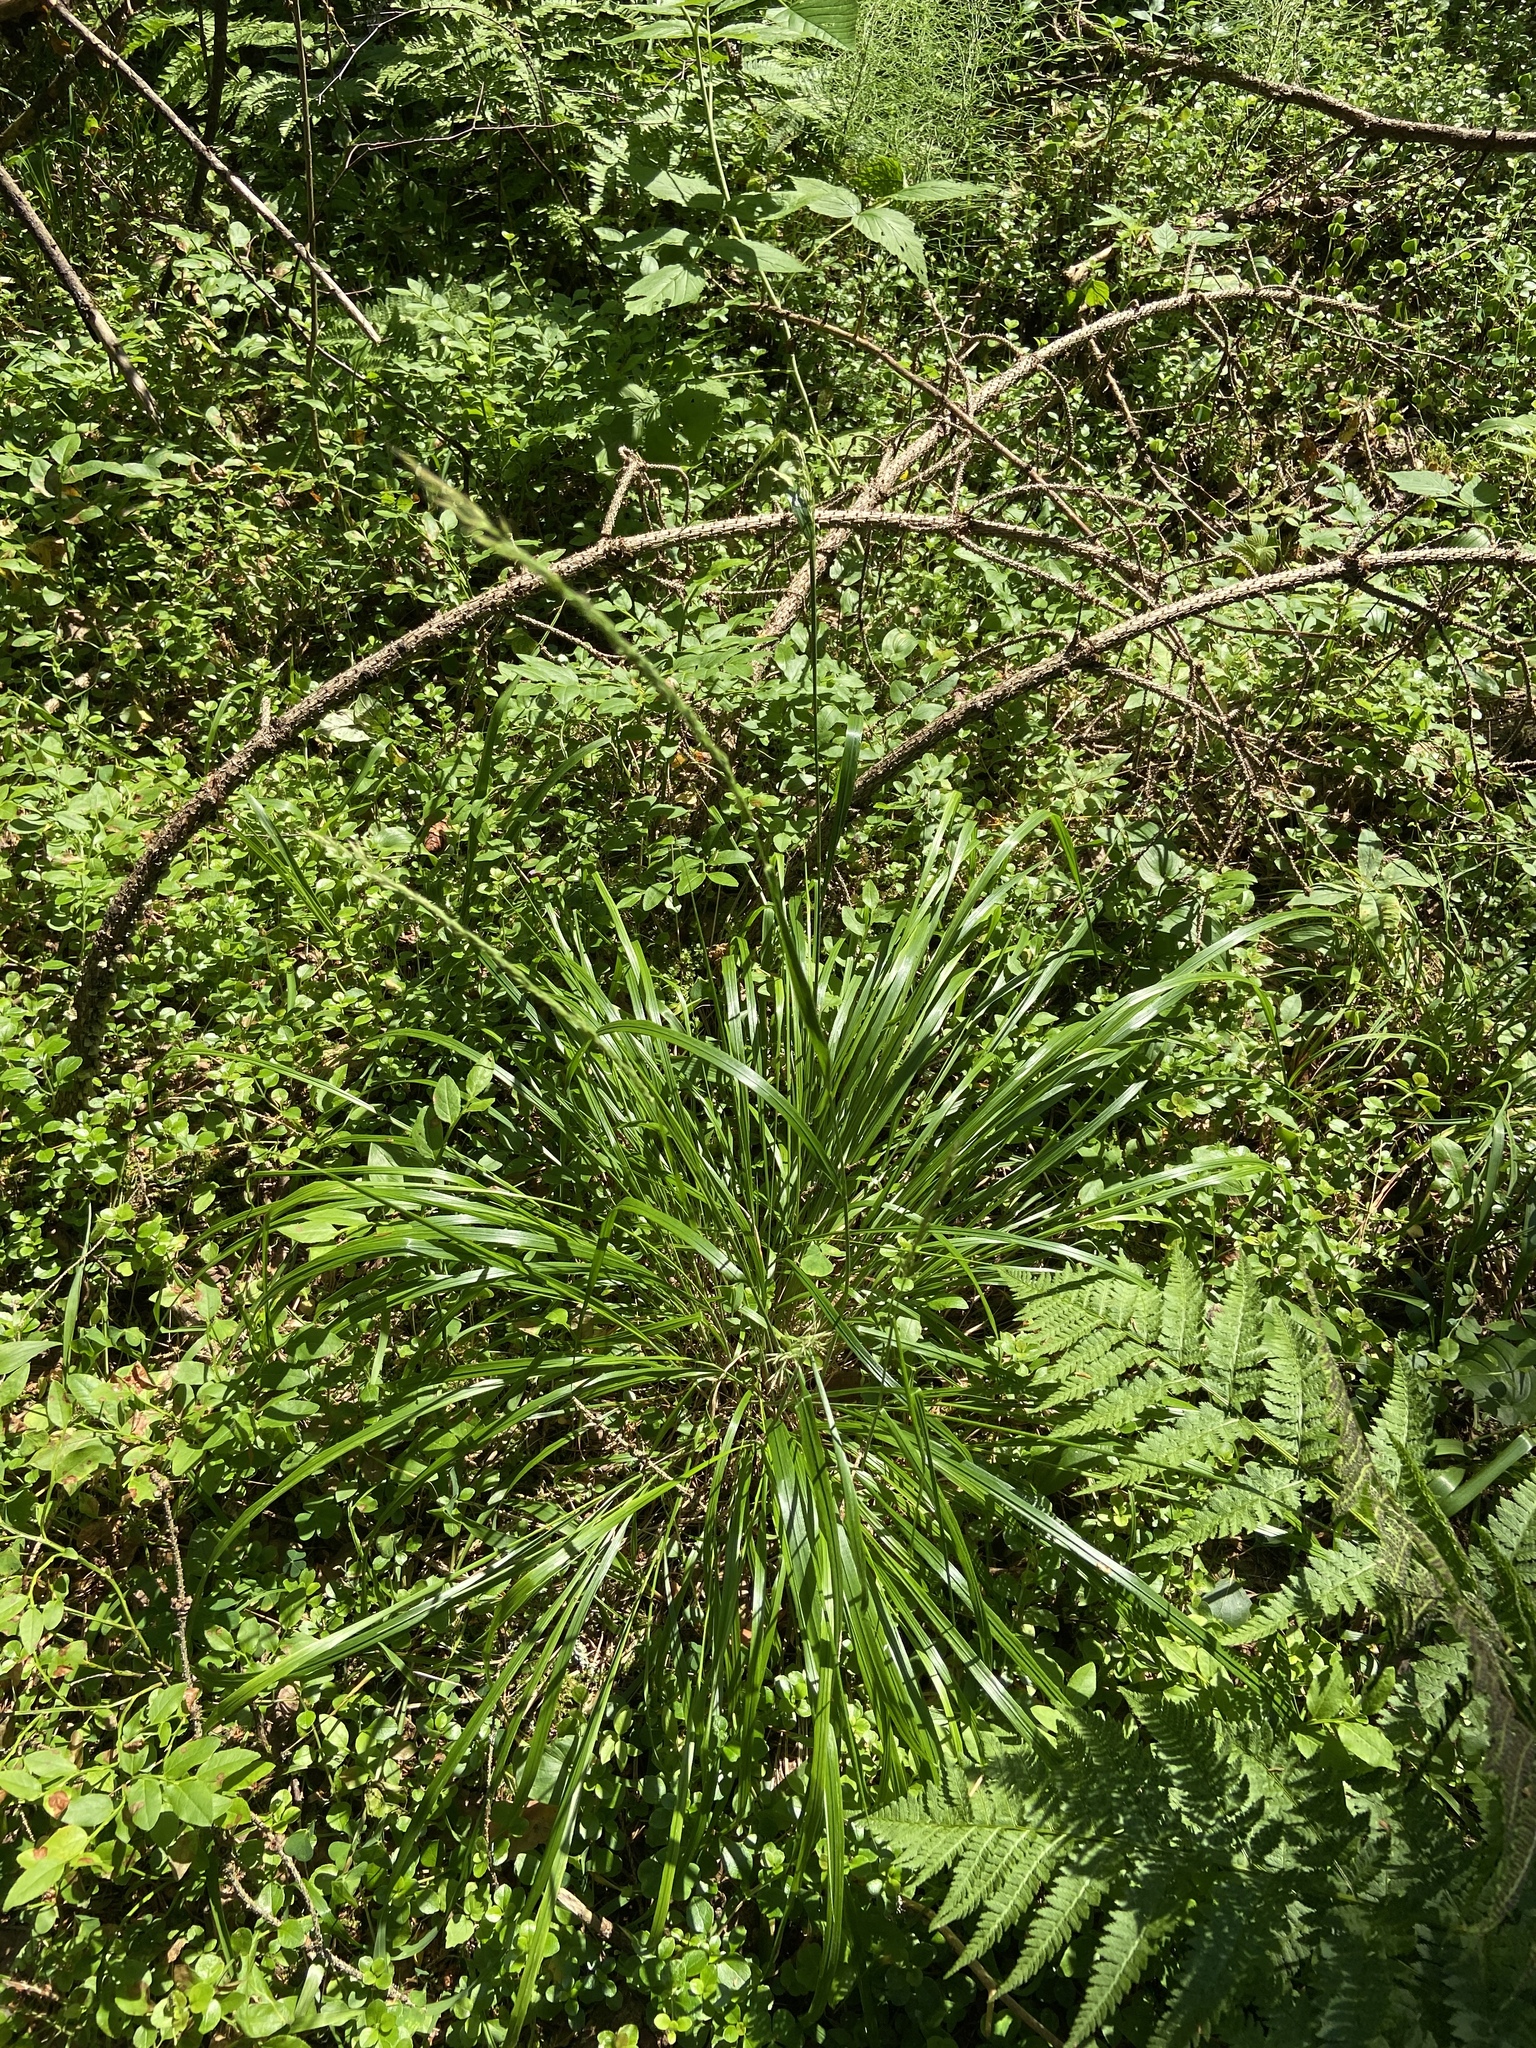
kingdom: Plantae
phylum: Tracheophyta
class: Liliopsida
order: Poales
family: Poaceae
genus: Calamagrostis
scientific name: Calamagrostis arundinacea
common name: Metskastik
